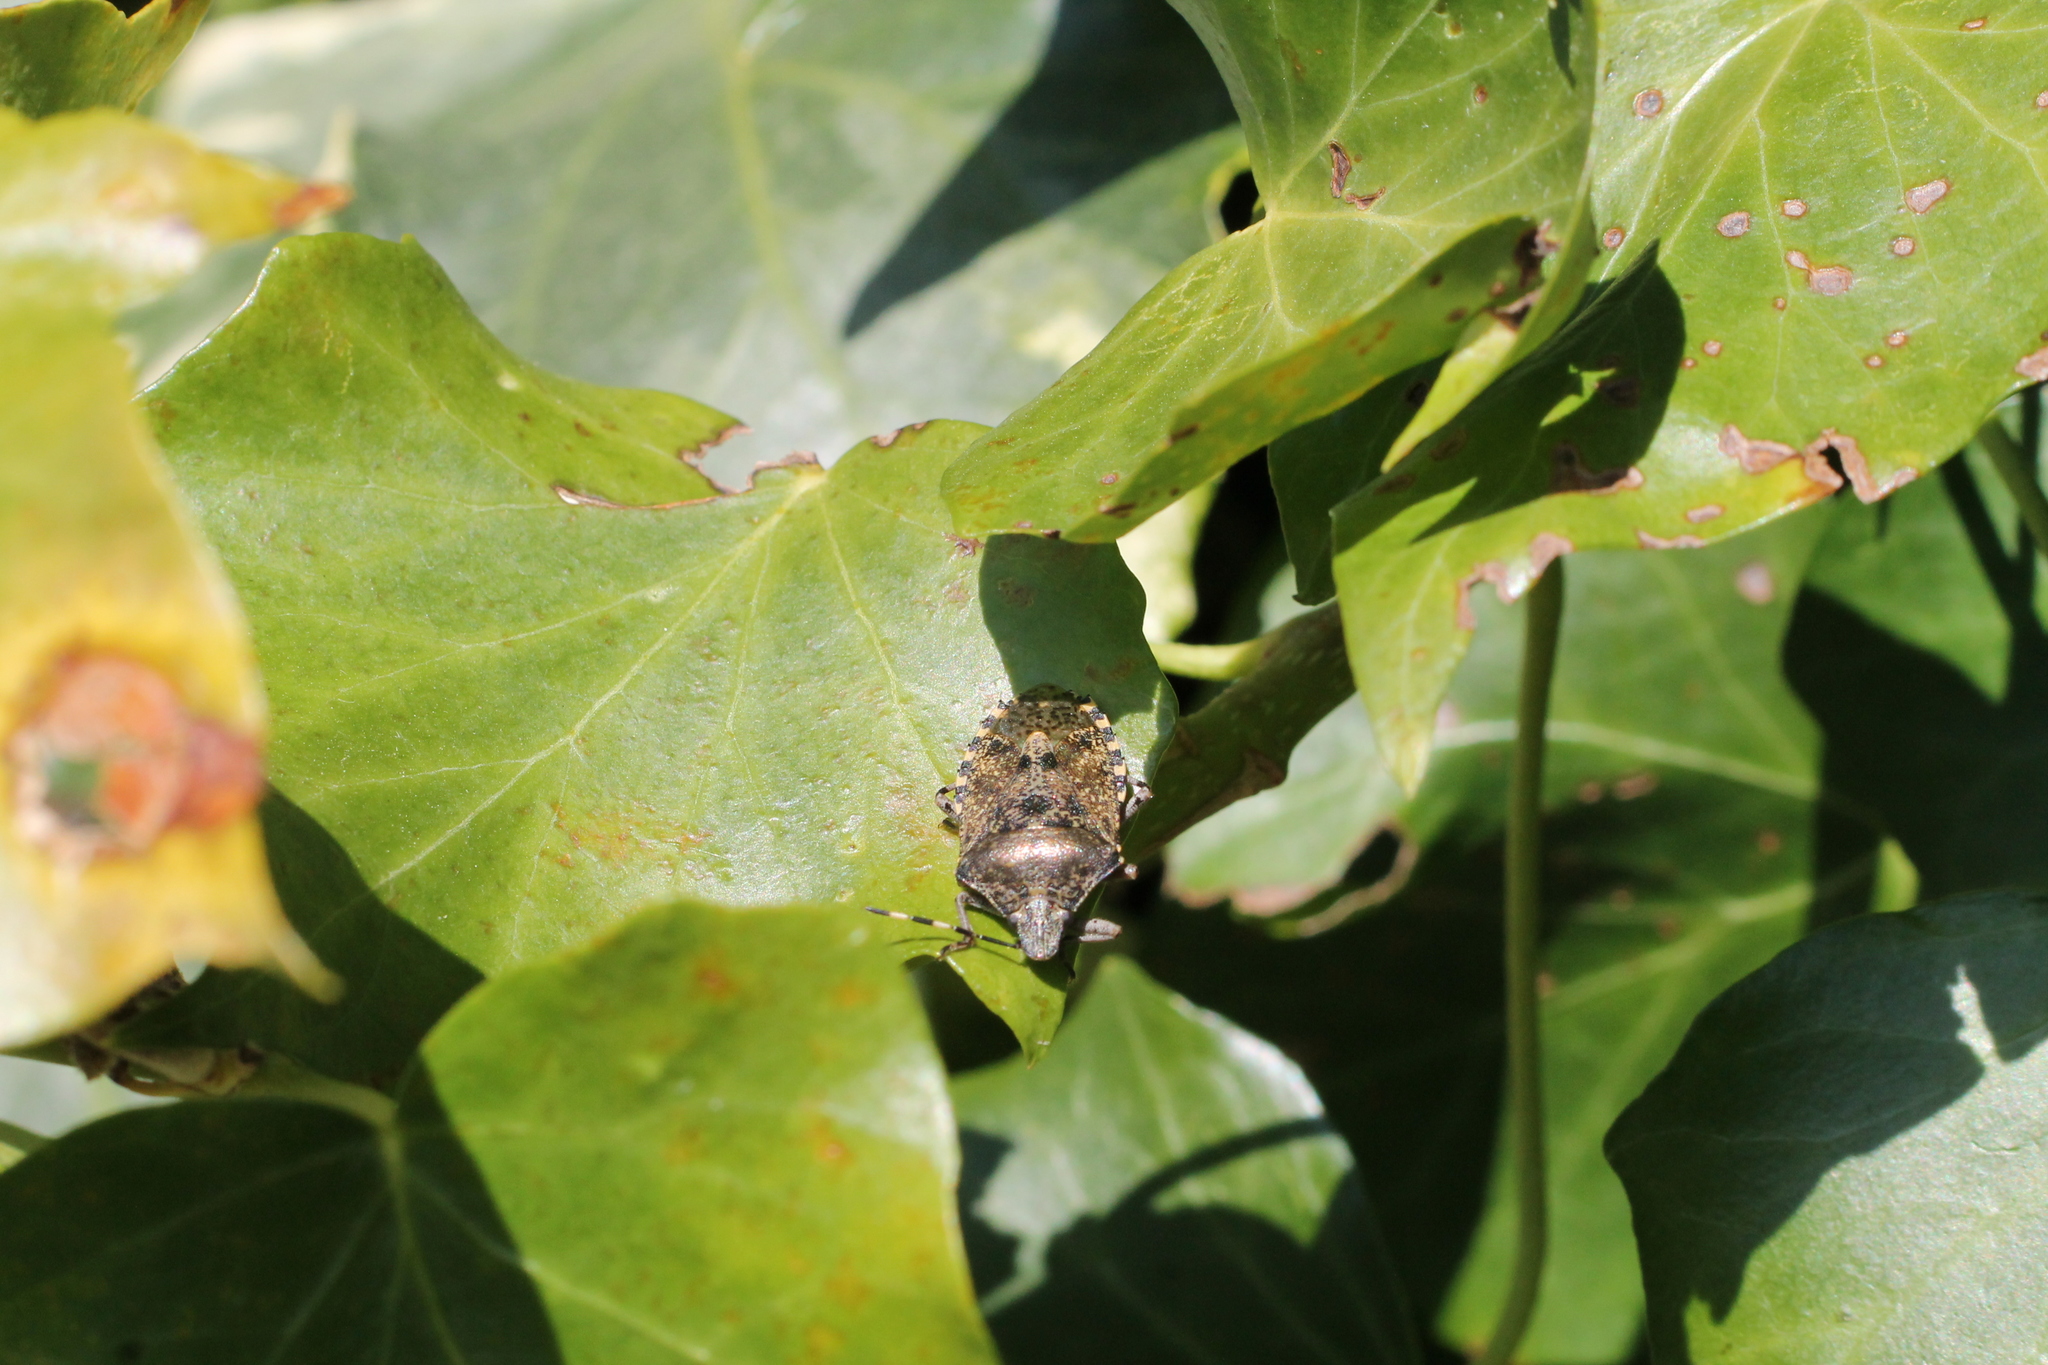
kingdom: Animalia
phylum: Arthropoda
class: Insecta
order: Hemiptera
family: Pentatomidae
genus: Rhaphigaster
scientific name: Rhaphigaster nebulosa
